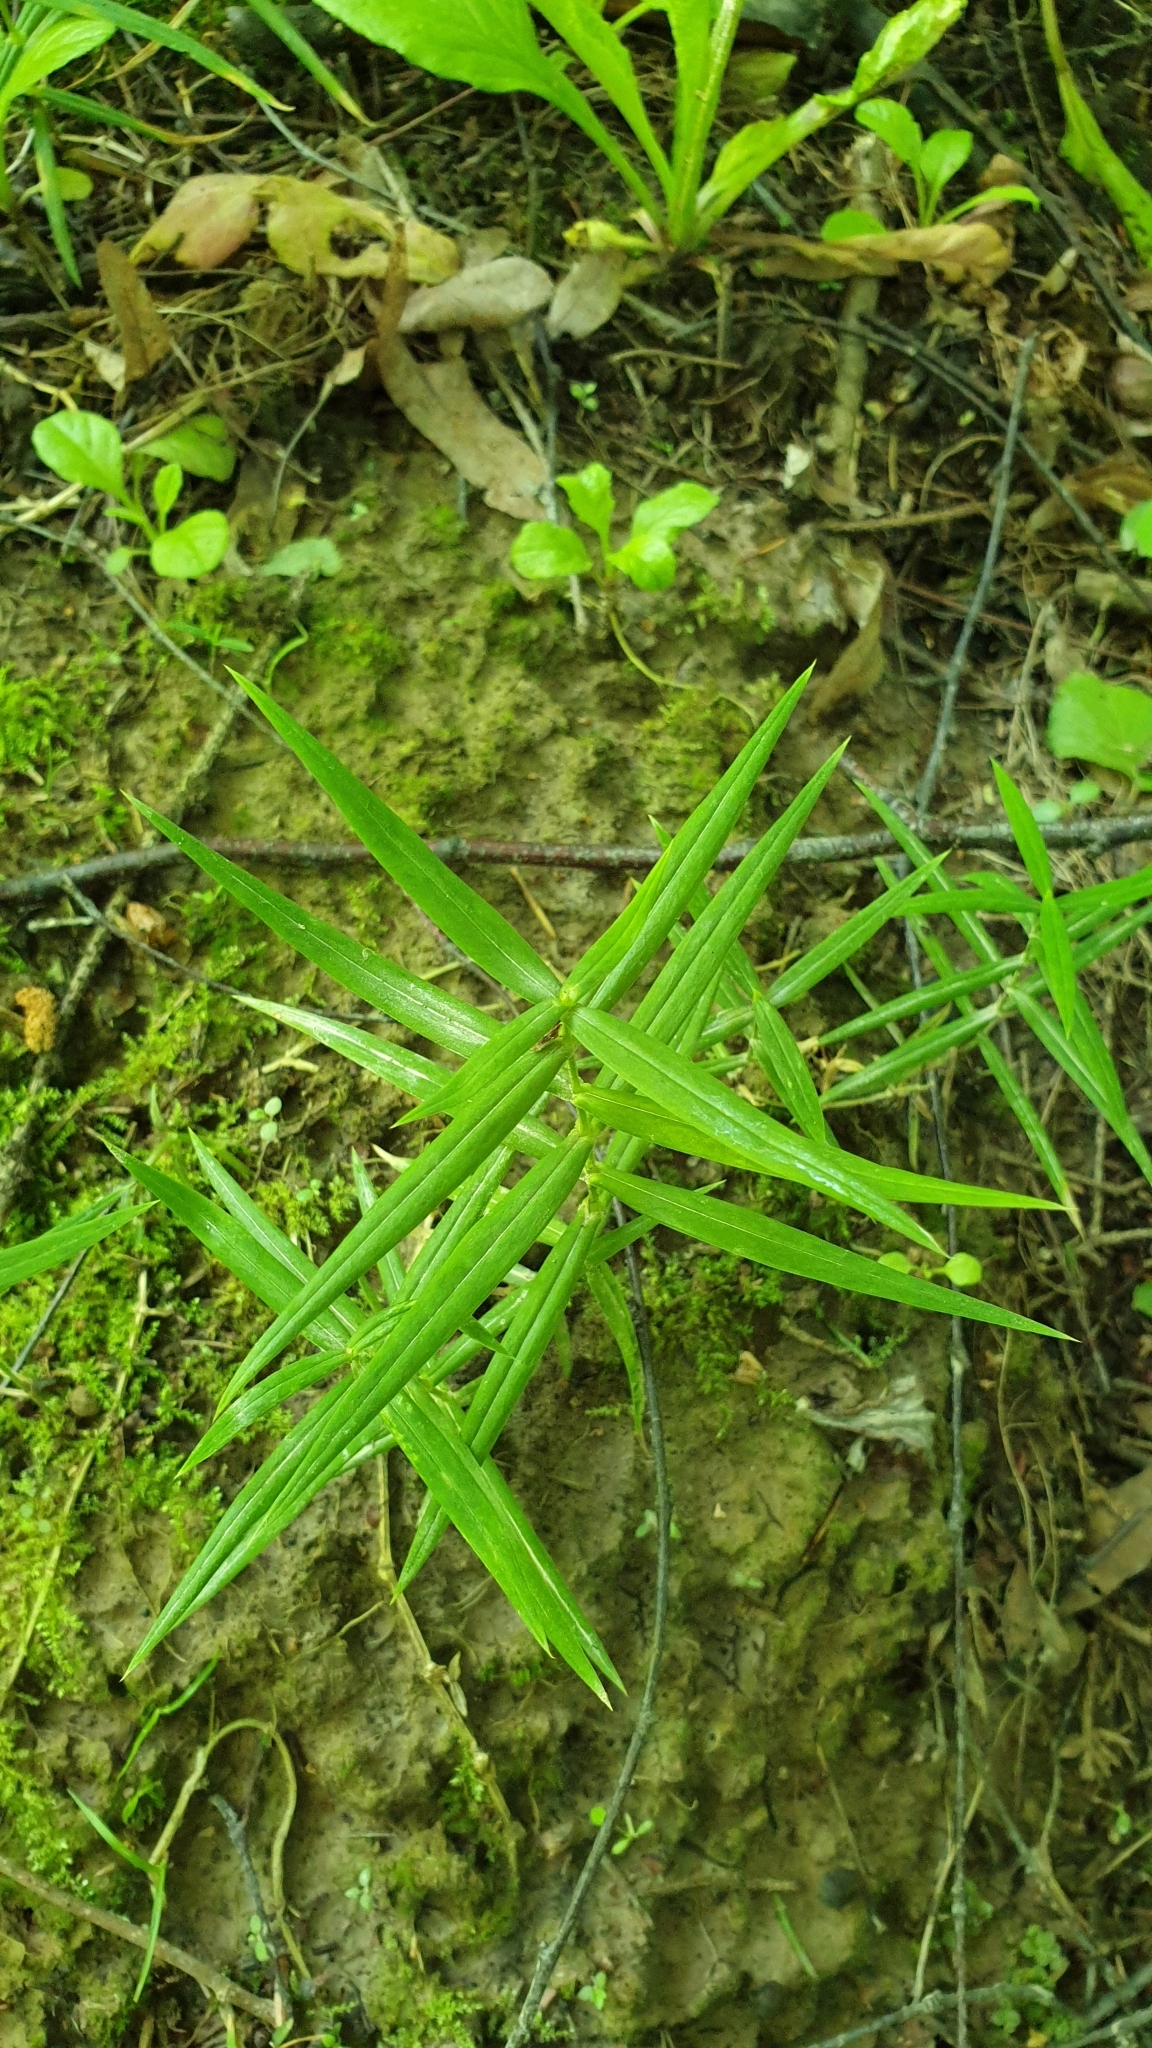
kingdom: Plantae
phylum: Tracheophyta
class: Magnoliopsida
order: Caryophyllales
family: Caryophyllaceae
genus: Rabelera
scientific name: Rabelera holostea
